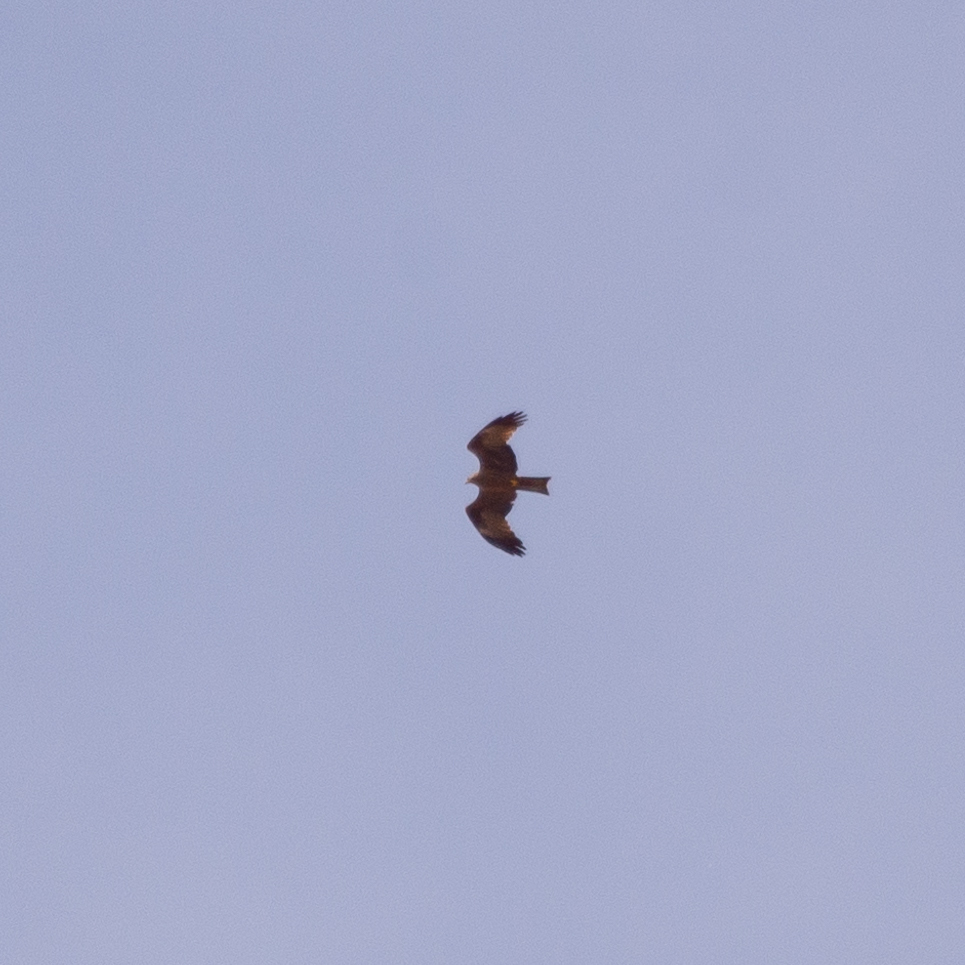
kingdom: Animalia
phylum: Chordata
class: Aves
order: Accipitriformes
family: Accipitridae
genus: Milvus
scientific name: Milvus migrans
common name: Black kite
